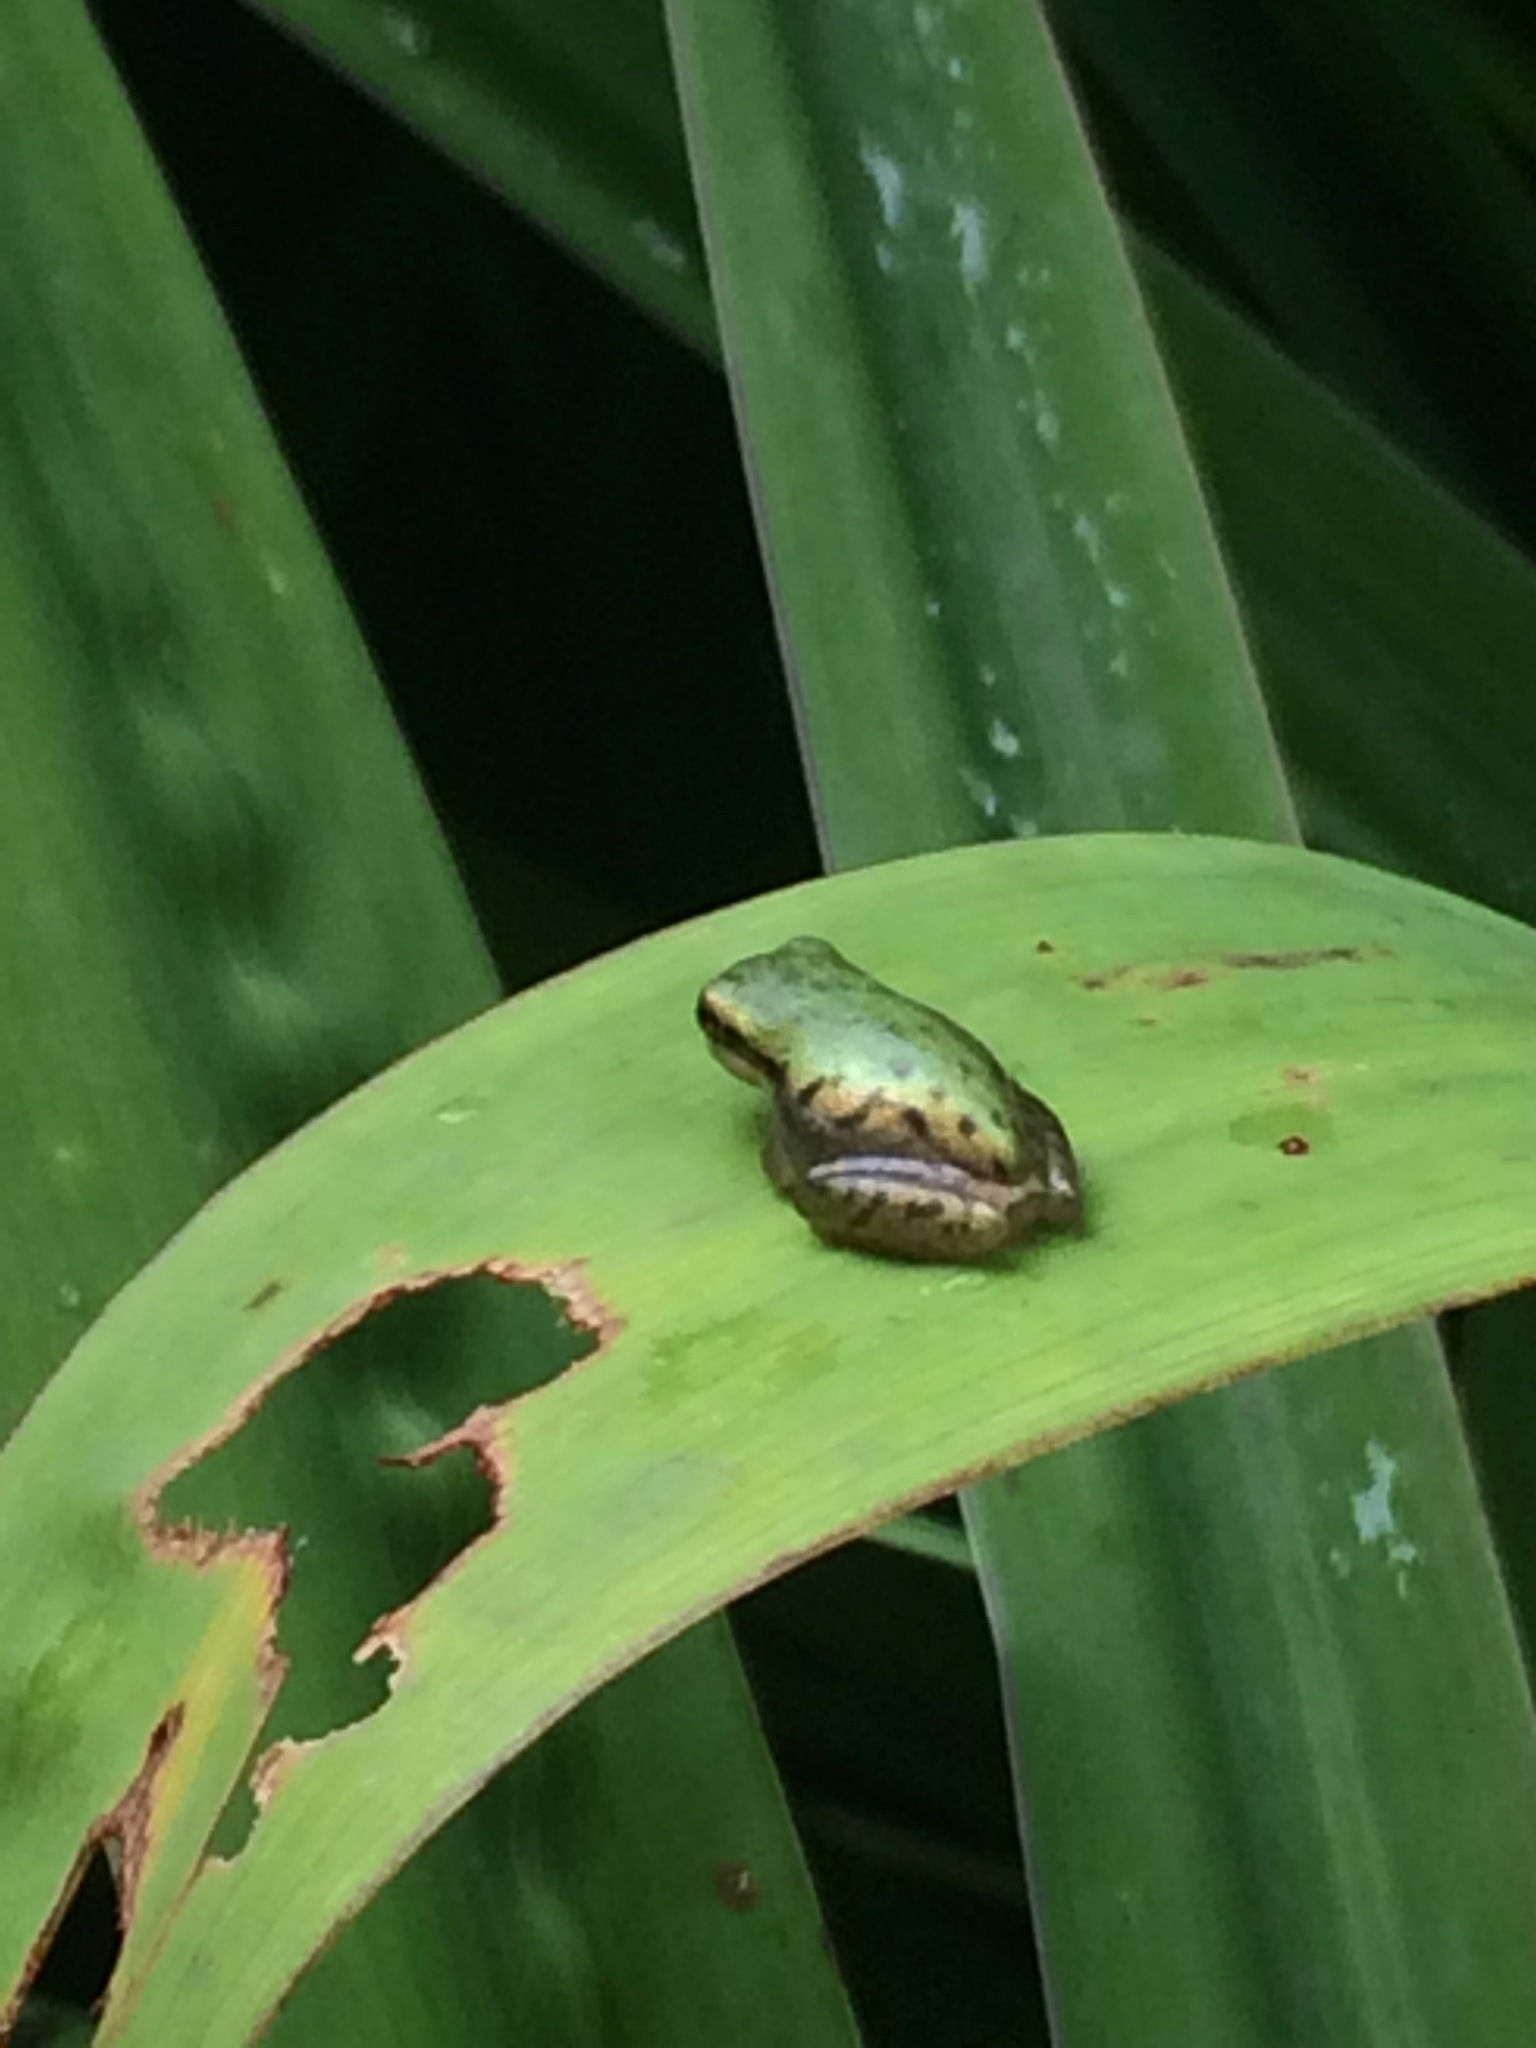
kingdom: Animalia
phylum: Chordata
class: Amphibia
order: Anura
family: Hylidae
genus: Dryophytes
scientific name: Dryophytes squirellus
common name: Squirrel treefrog
